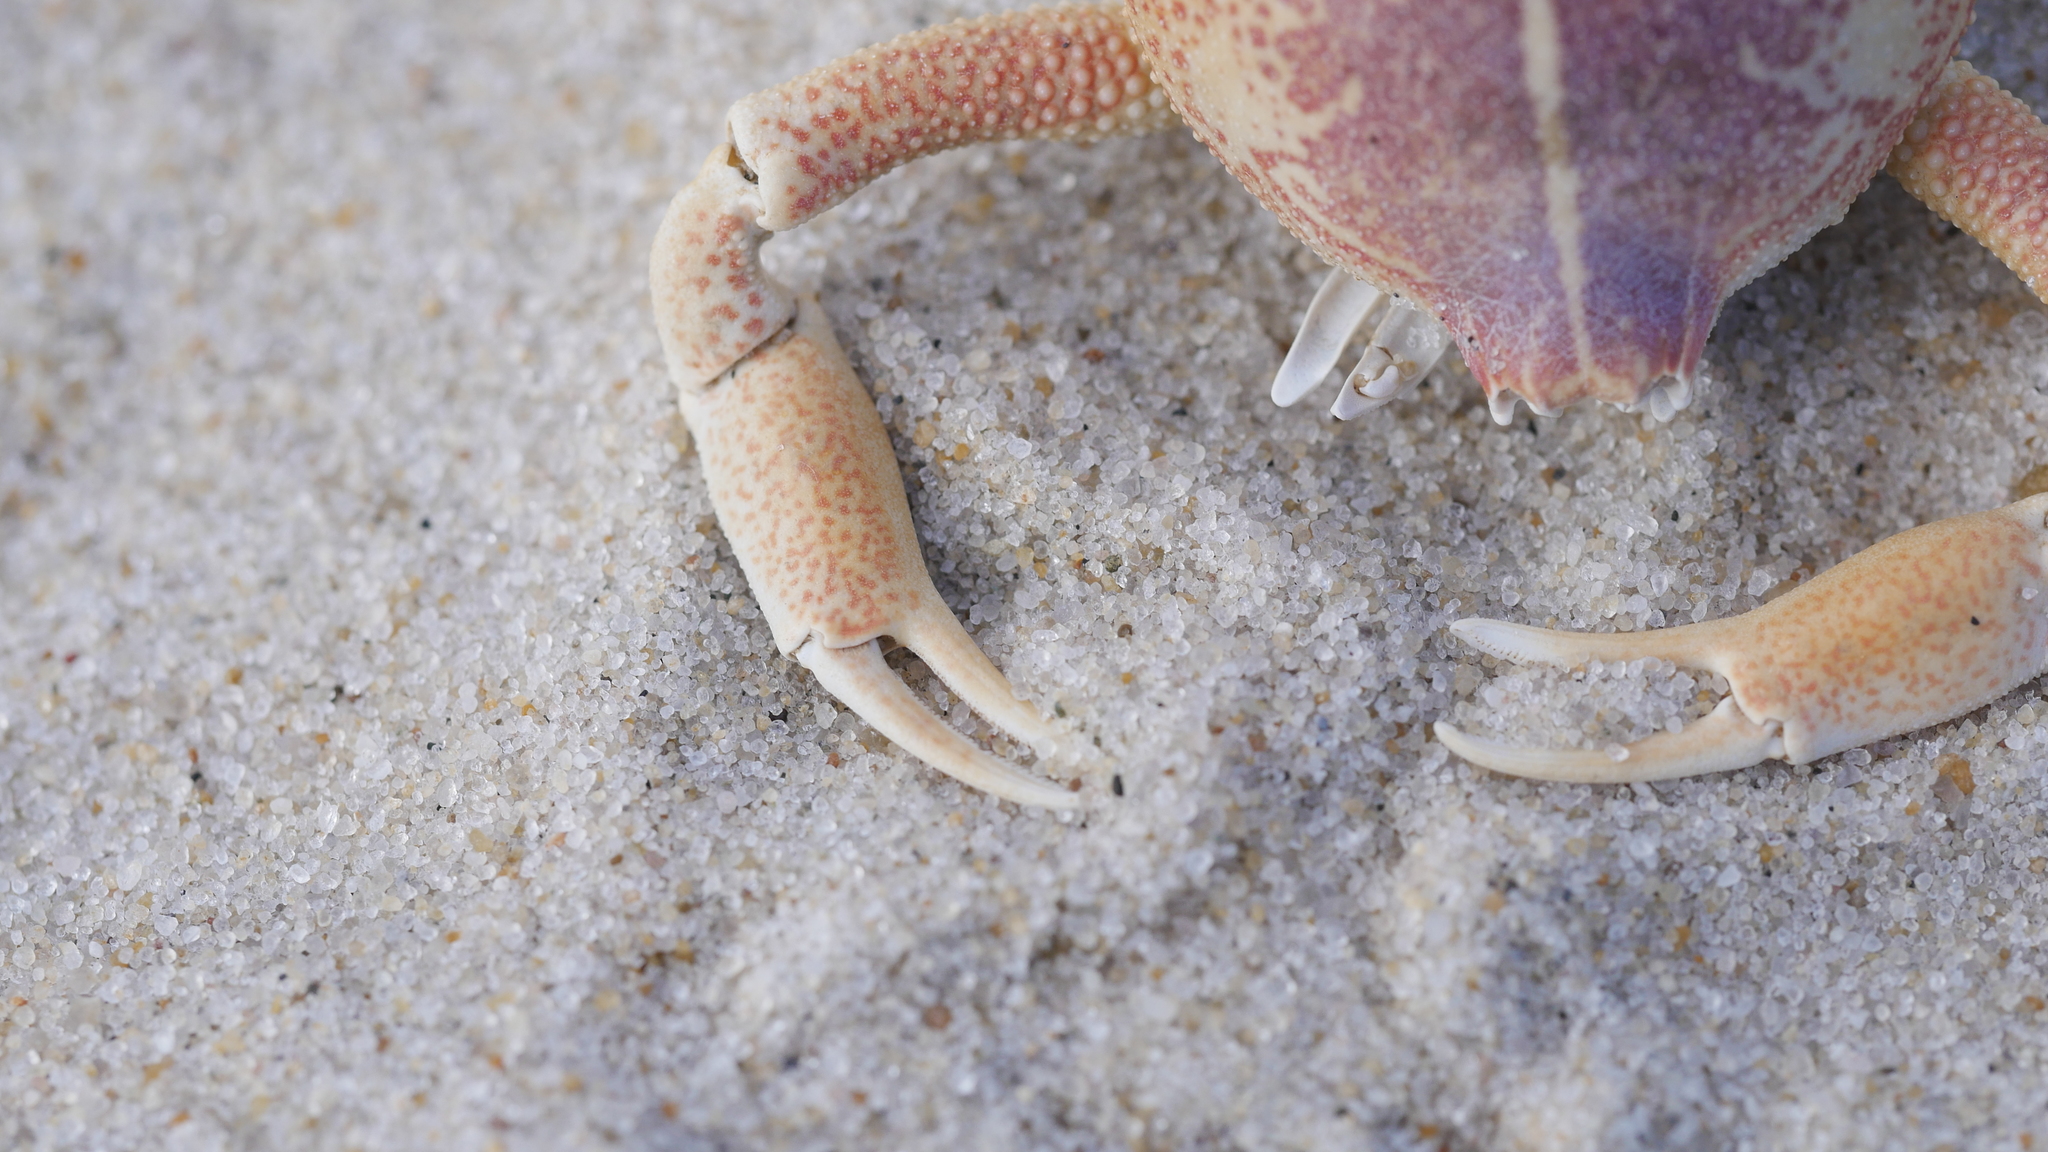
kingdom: Animalia
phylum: Arthropoda
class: Malacostraca
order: Decapoda
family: Leucosiidae
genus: Persephona
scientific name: Persephona aquilonaris
